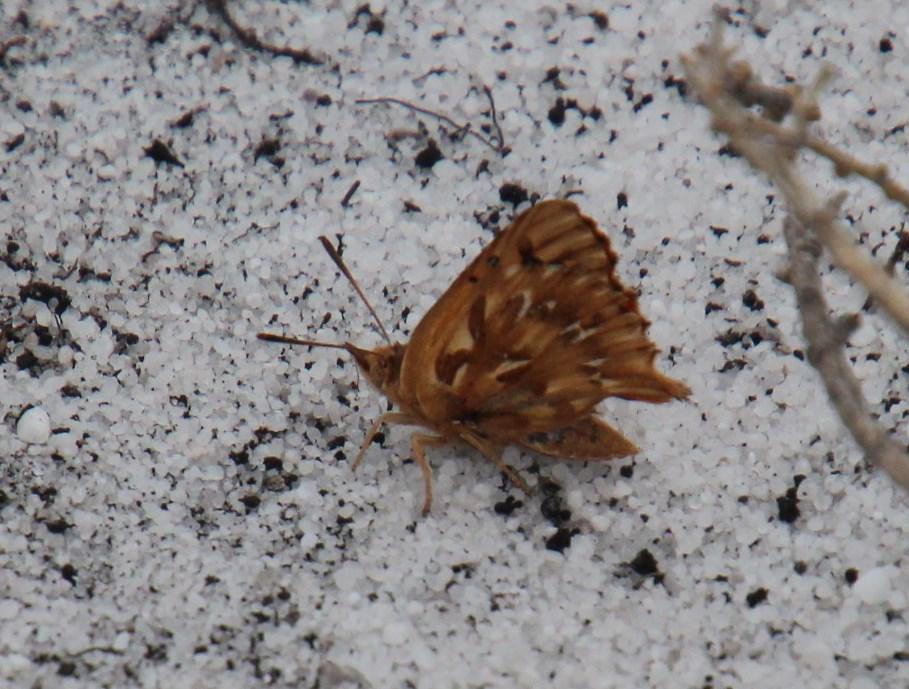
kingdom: Animalia
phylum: Arthropoda
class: Insecta
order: Lepidoptera
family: Lycaenidae
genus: Chrysoritis
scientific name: Chrysoritis thysbe
